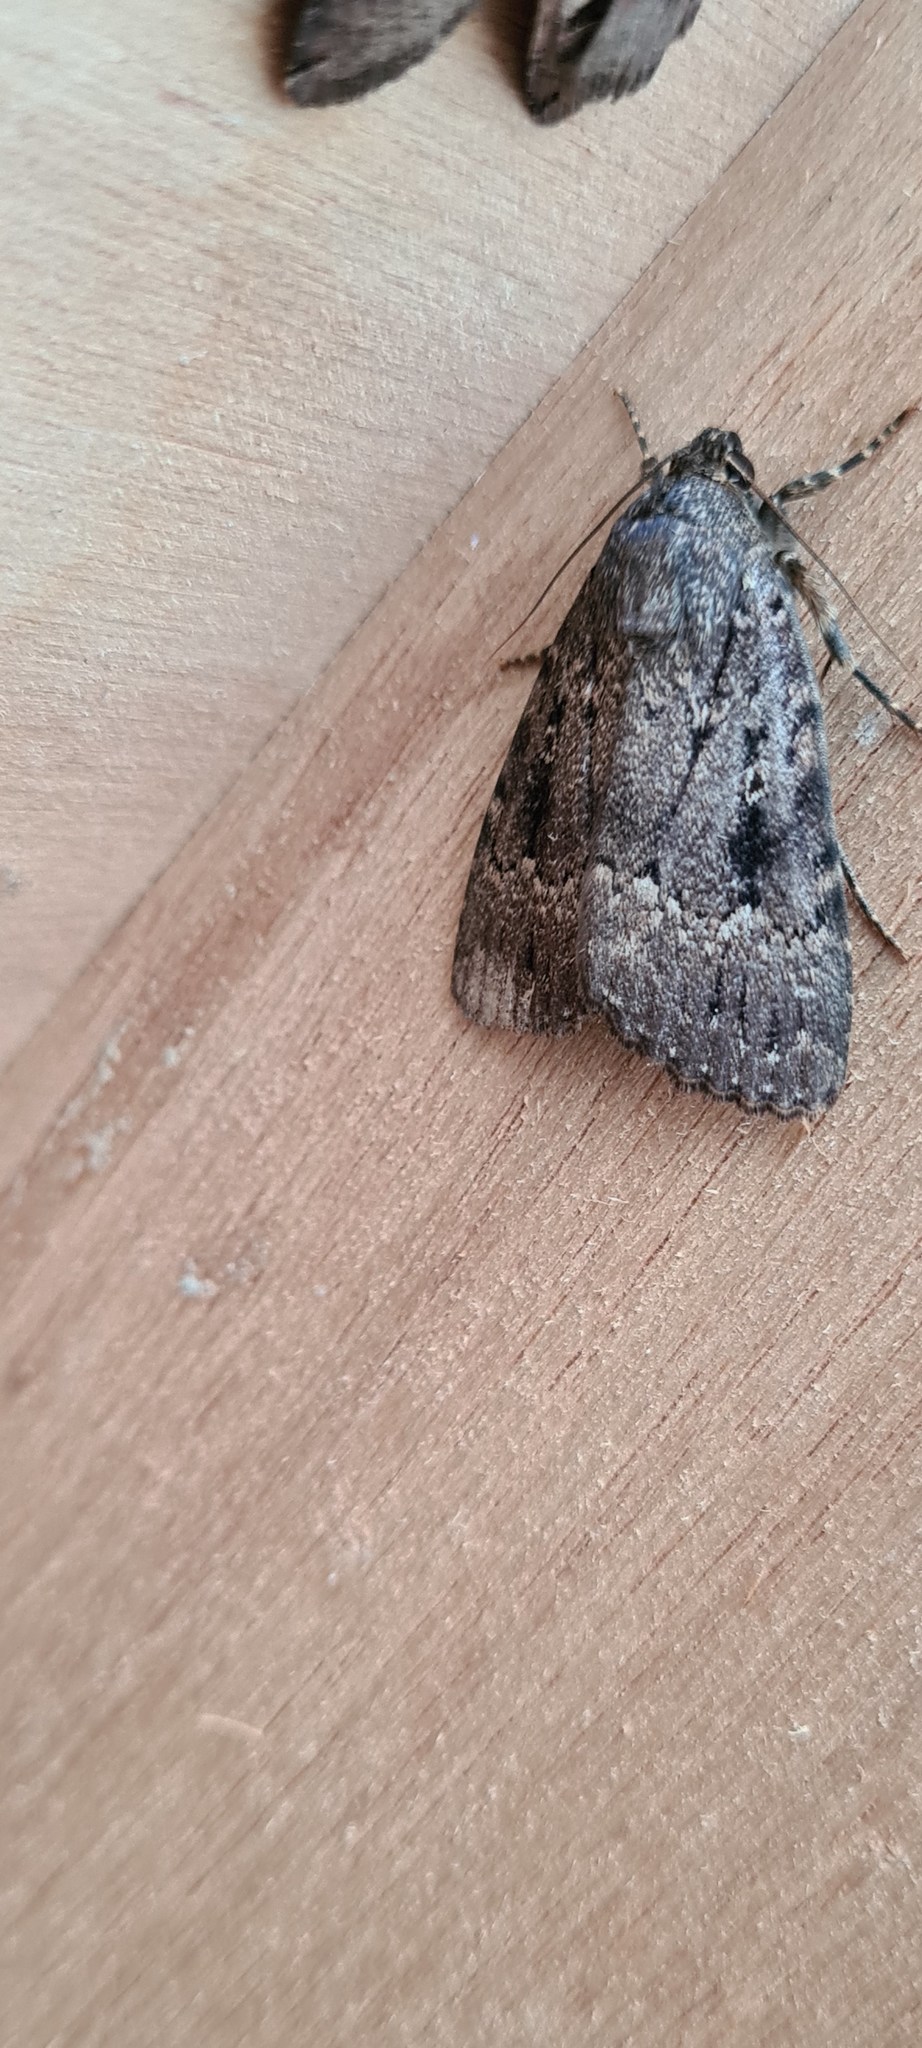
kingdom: Animalia
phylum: Arthropoda
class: Insecta
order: Lepidoptera
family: Noctuidae
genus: Amphipyra
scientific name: Amphipyra pyramidea
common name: Copper underwing
